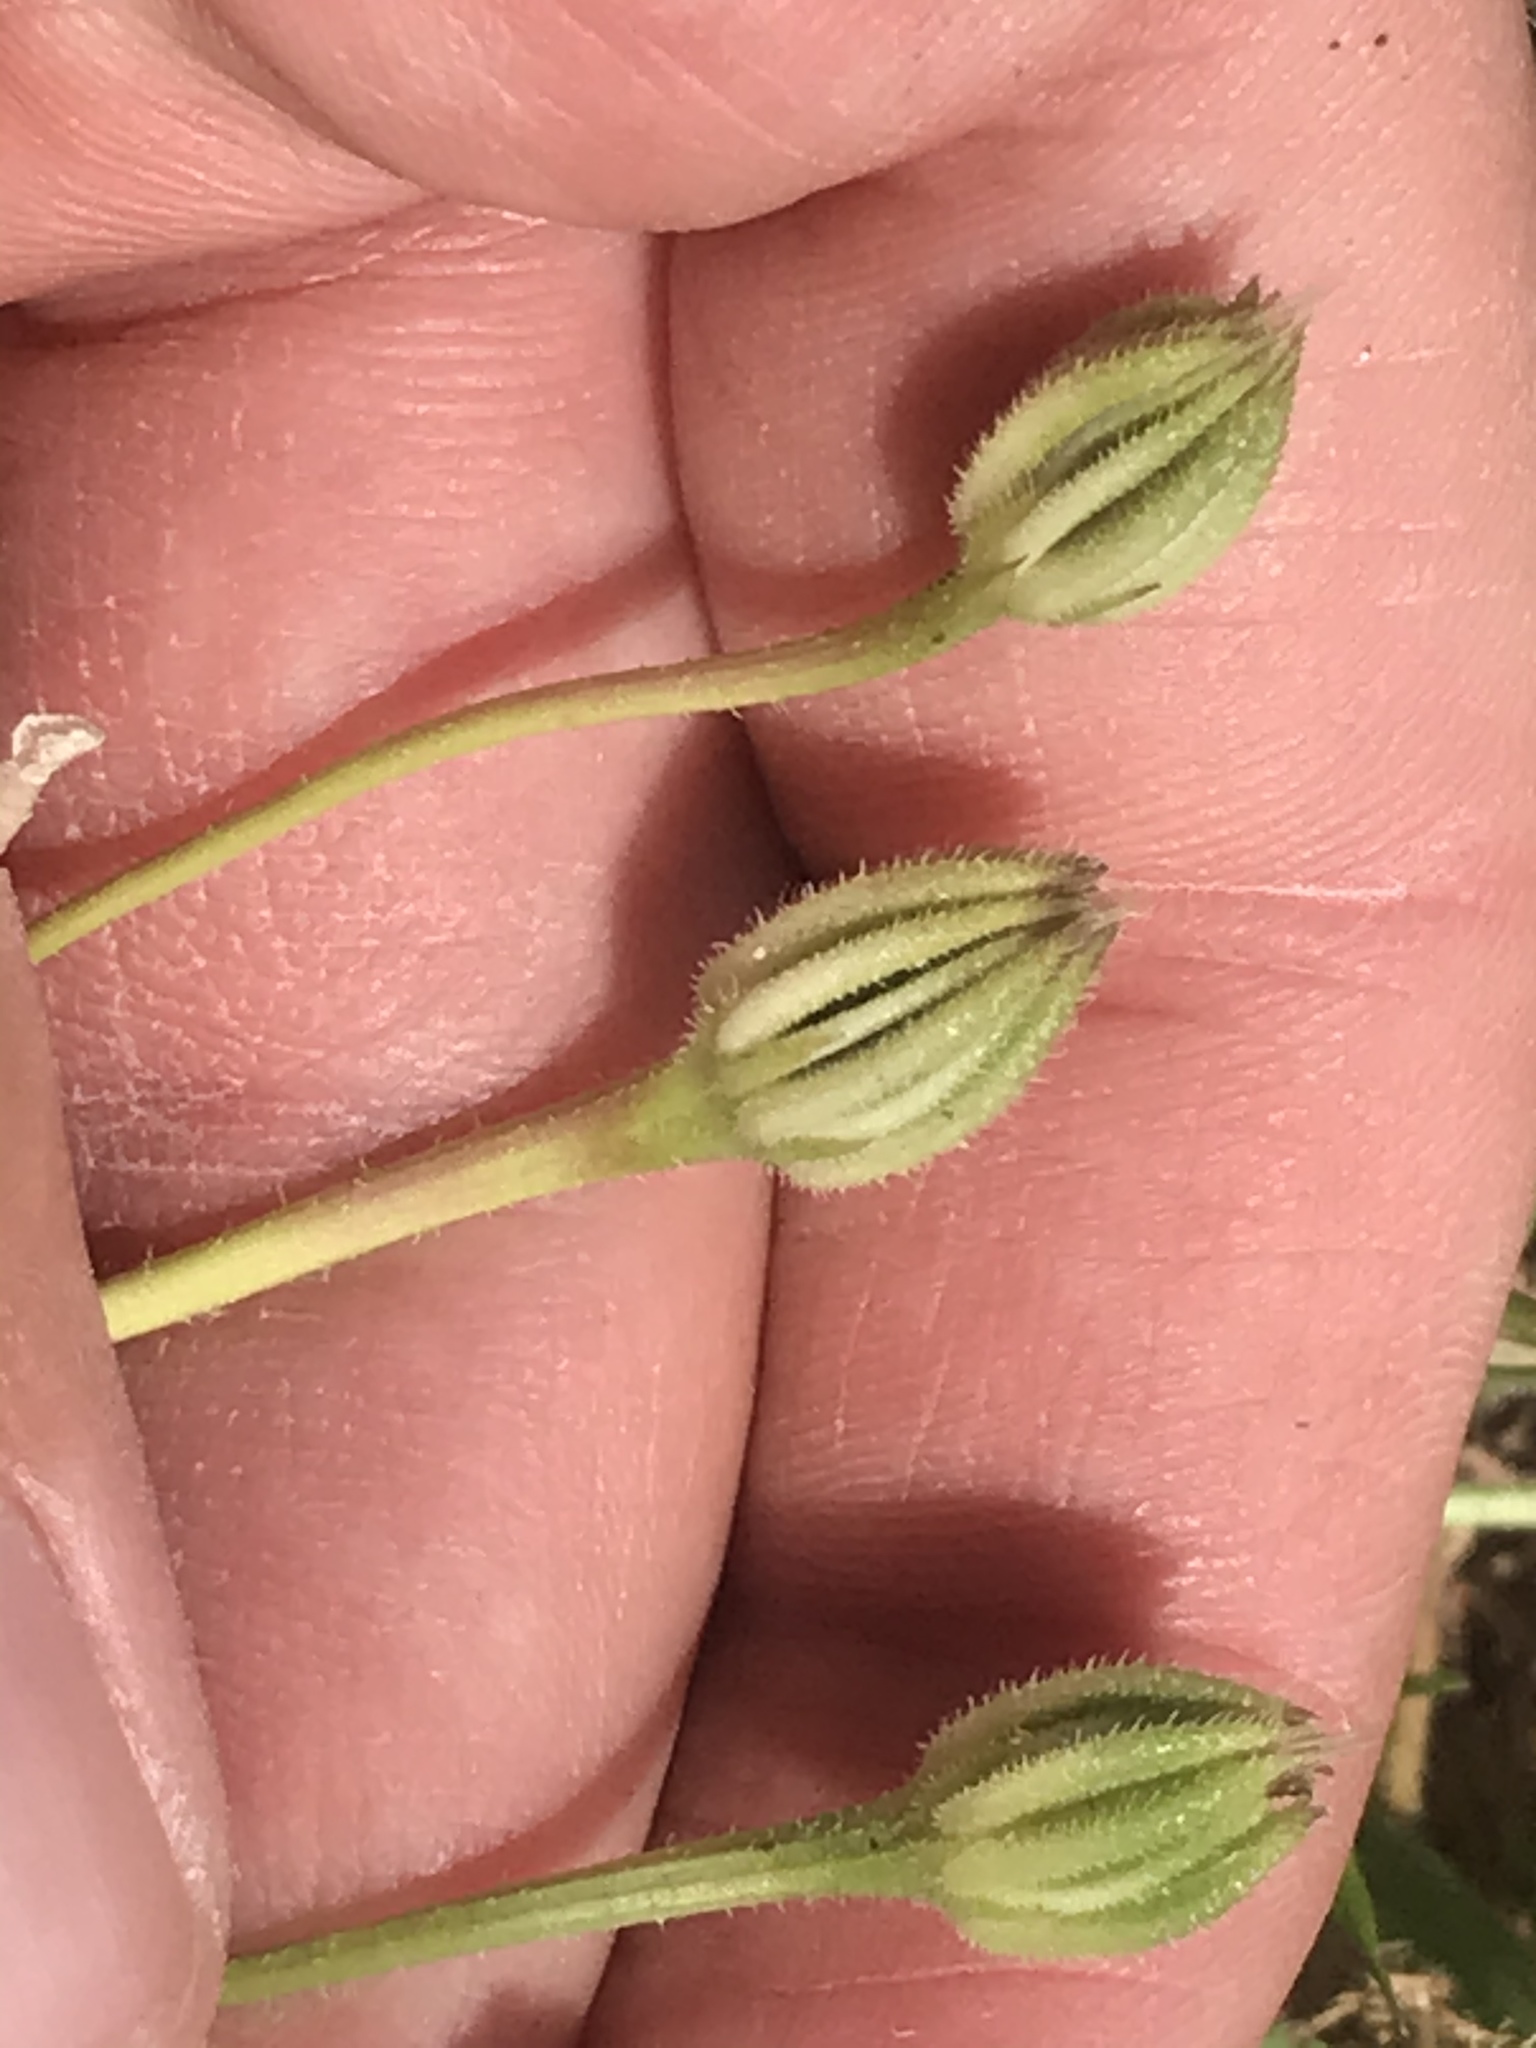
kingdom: Plantae
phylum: Tracheophyta
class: Magnoliopsida
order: Asterales
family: Asteraceae
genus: Hedypnois
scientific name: Hedypnois rhagadioloides
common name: Cretan weed
